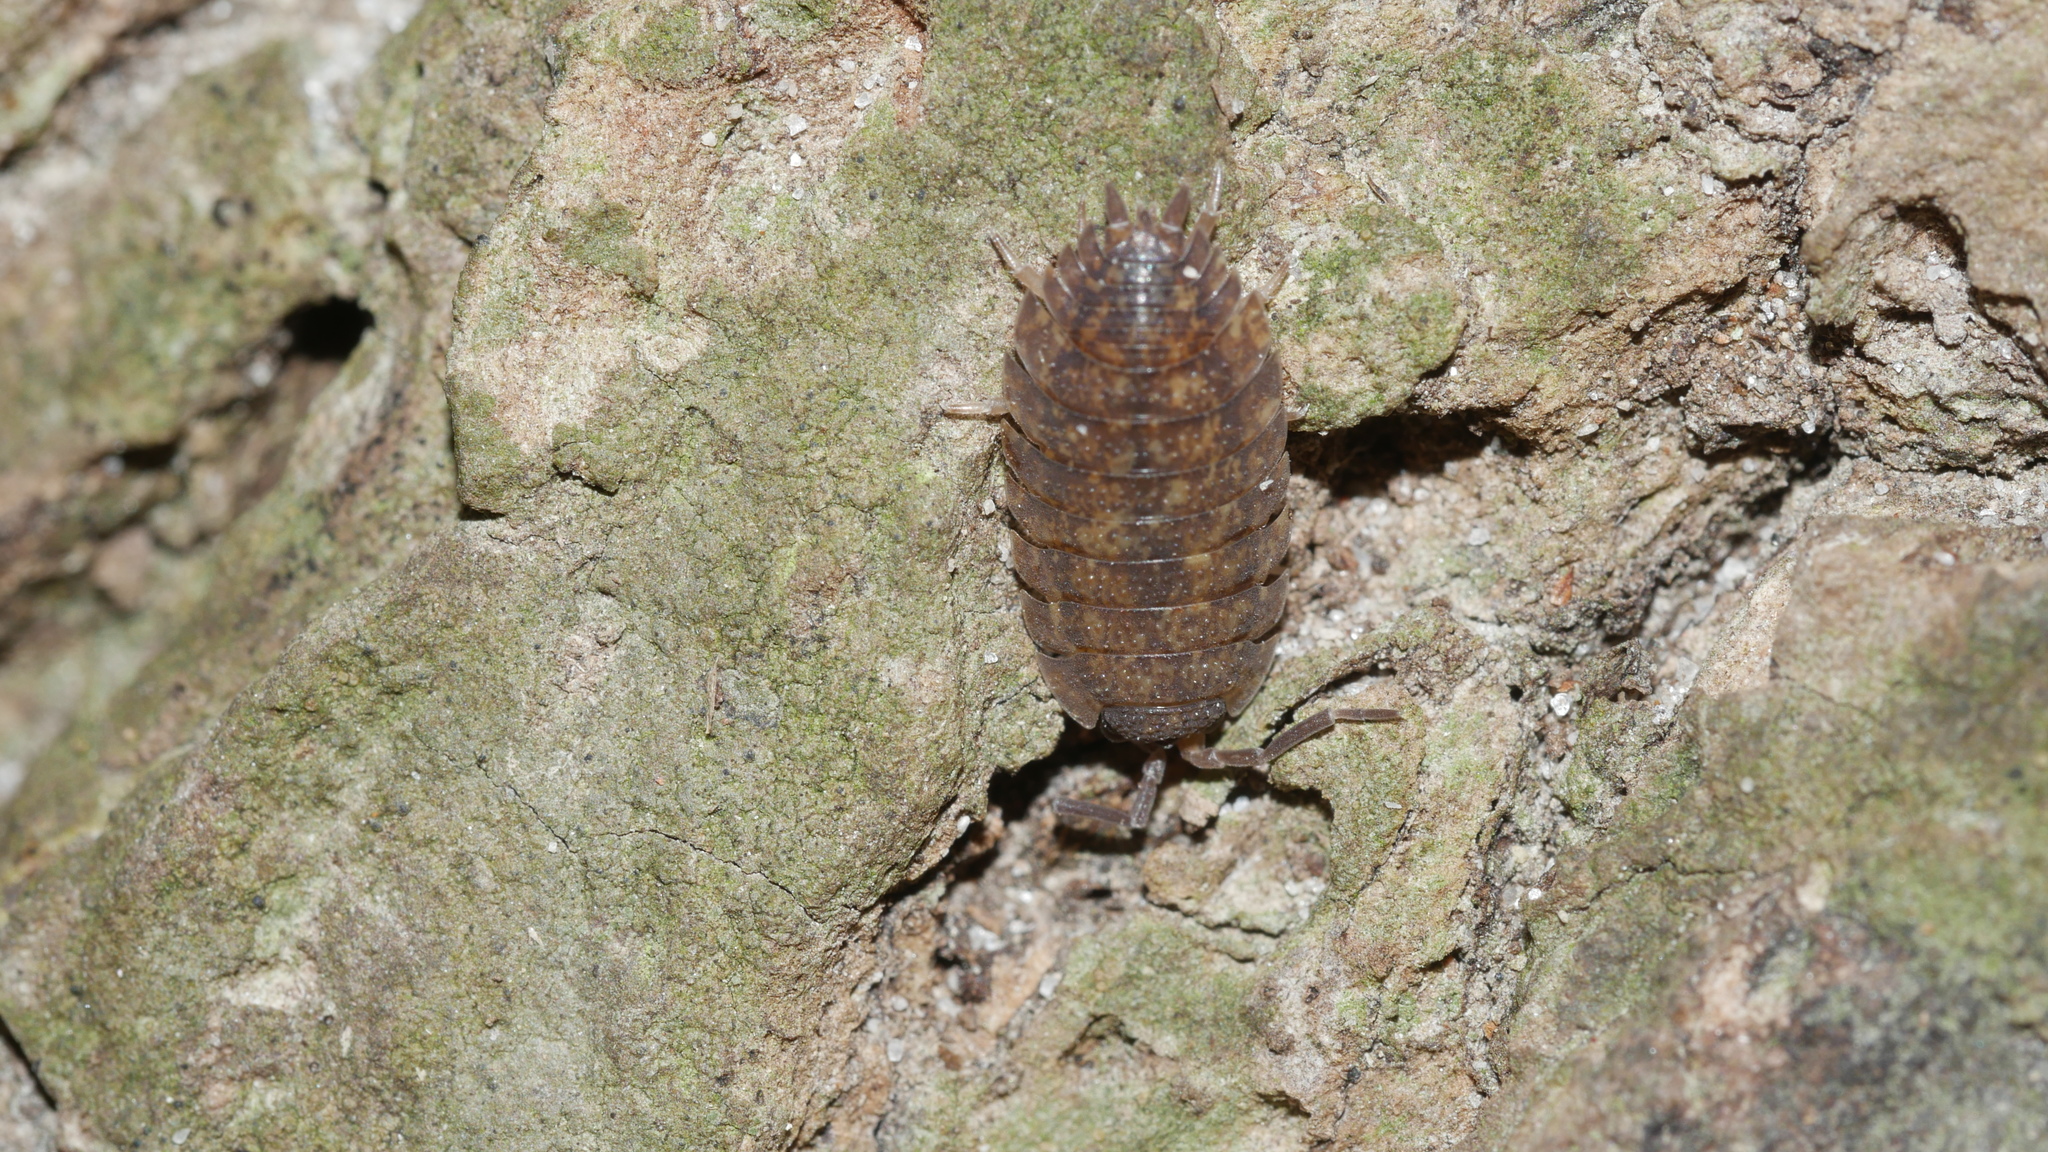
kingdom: Animalia
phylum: Arthropoda
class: Malacostraca
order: Isopoda
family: Porcellionidae
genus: Porcellio
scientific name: Porcellio scaber
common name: Common rough woodlouse
